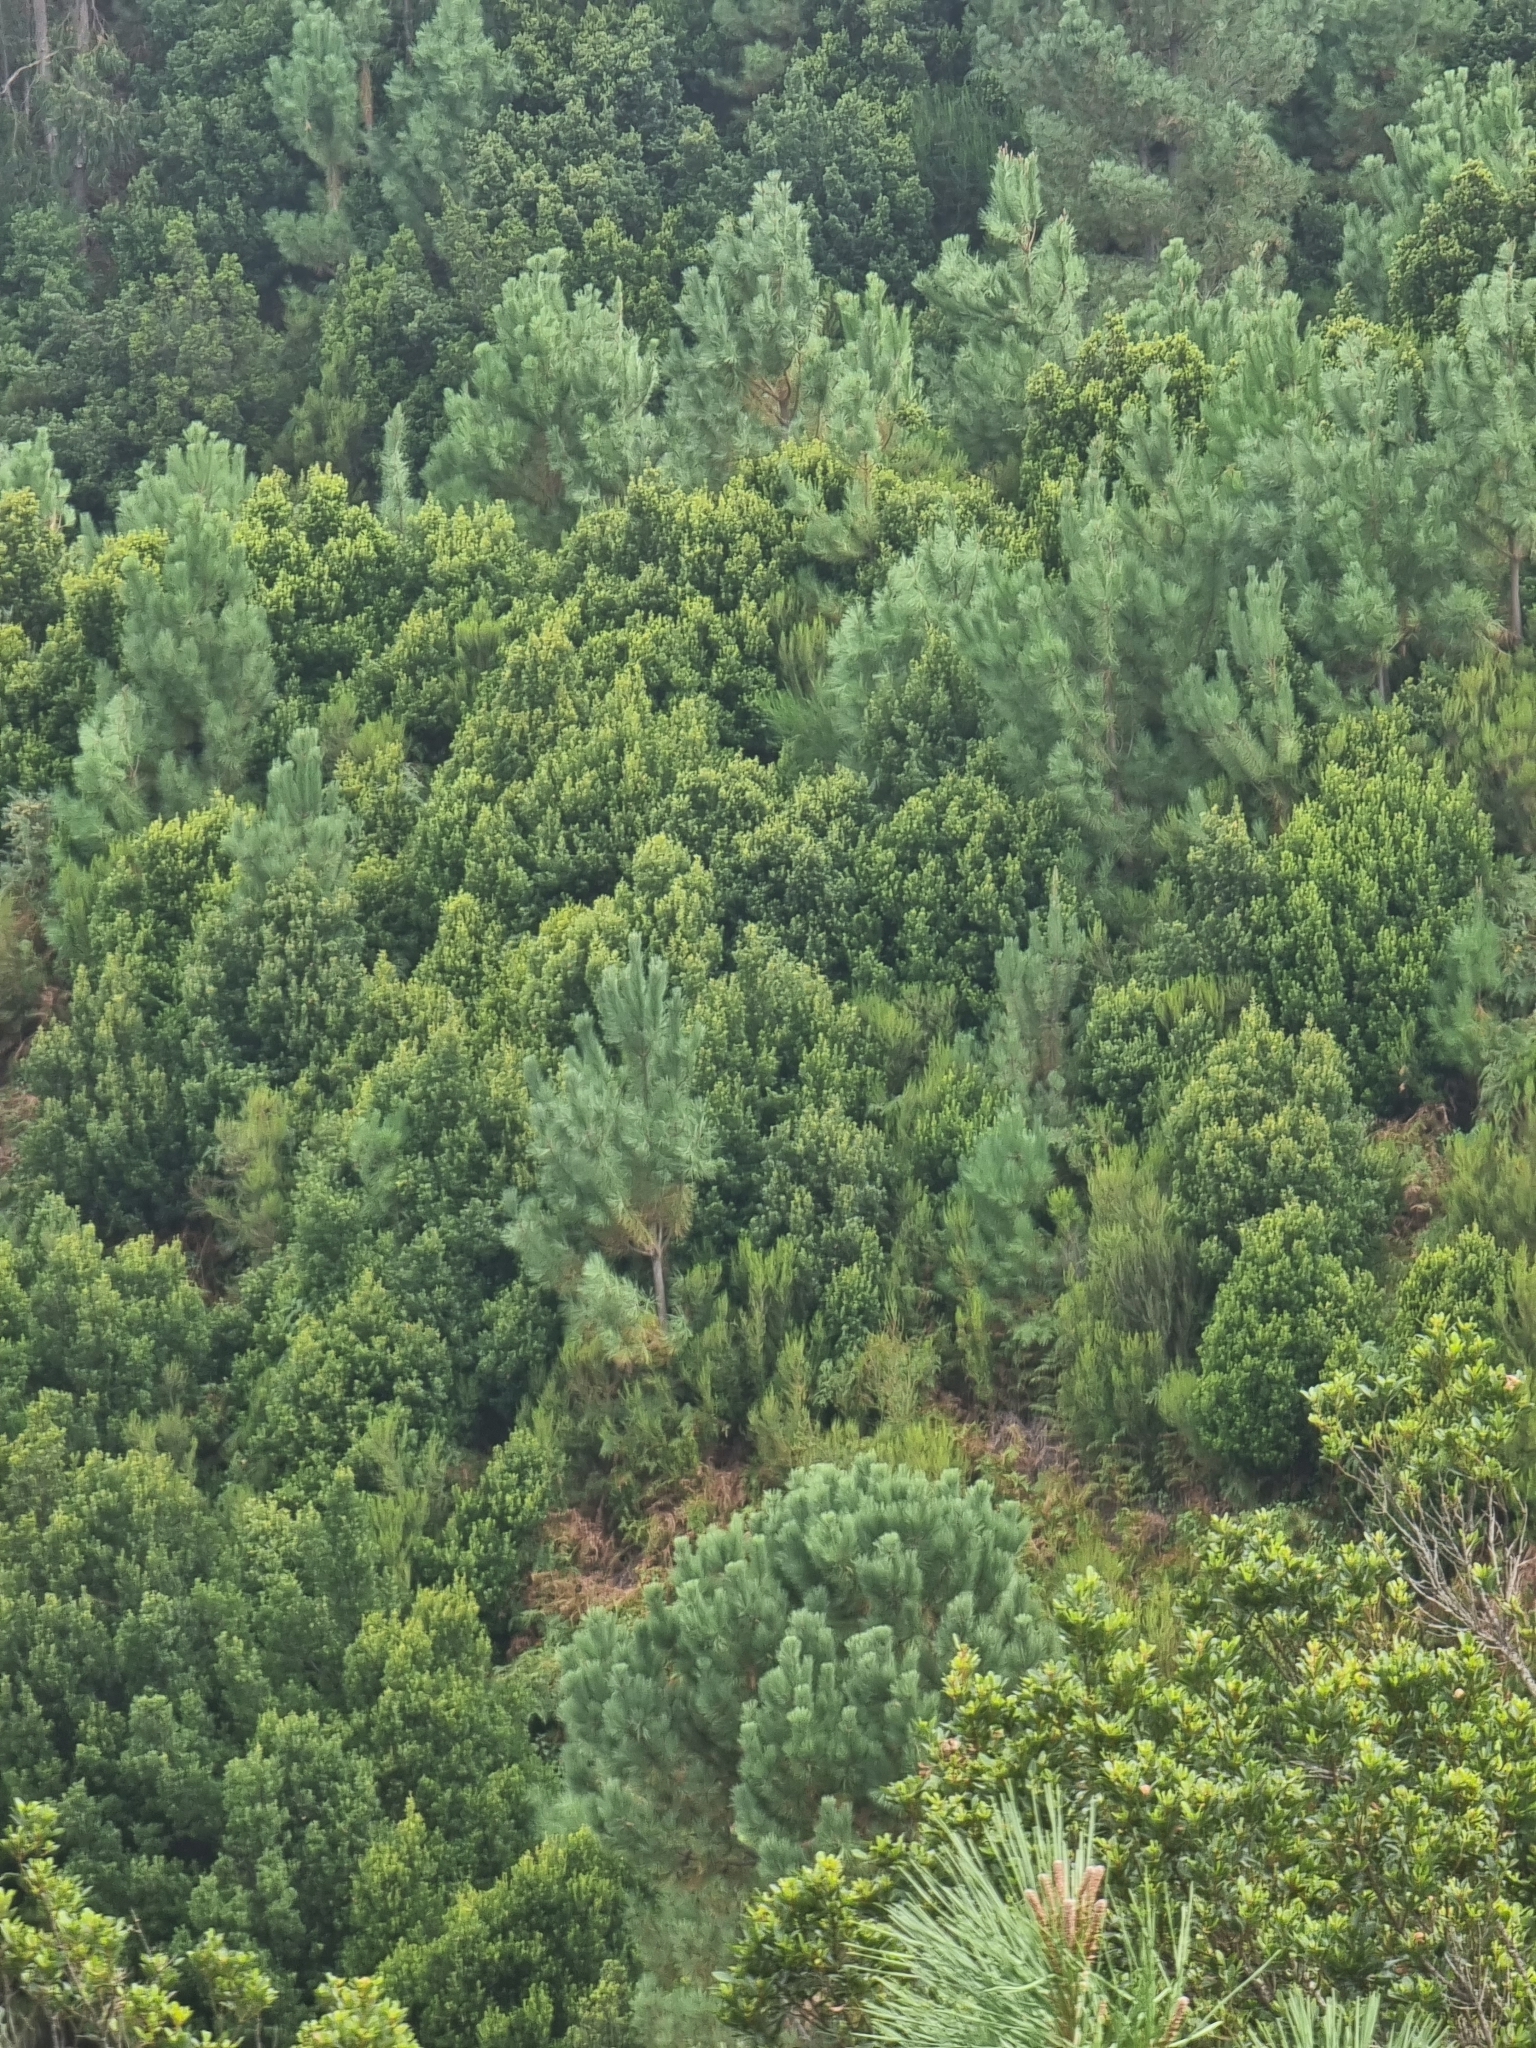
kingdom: Plantae
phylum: Tracheophyta
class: Pinopsida
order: Pinales
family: Pinaceae
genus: Pinus
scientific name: Pinus pinaster
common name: Maritime pine
